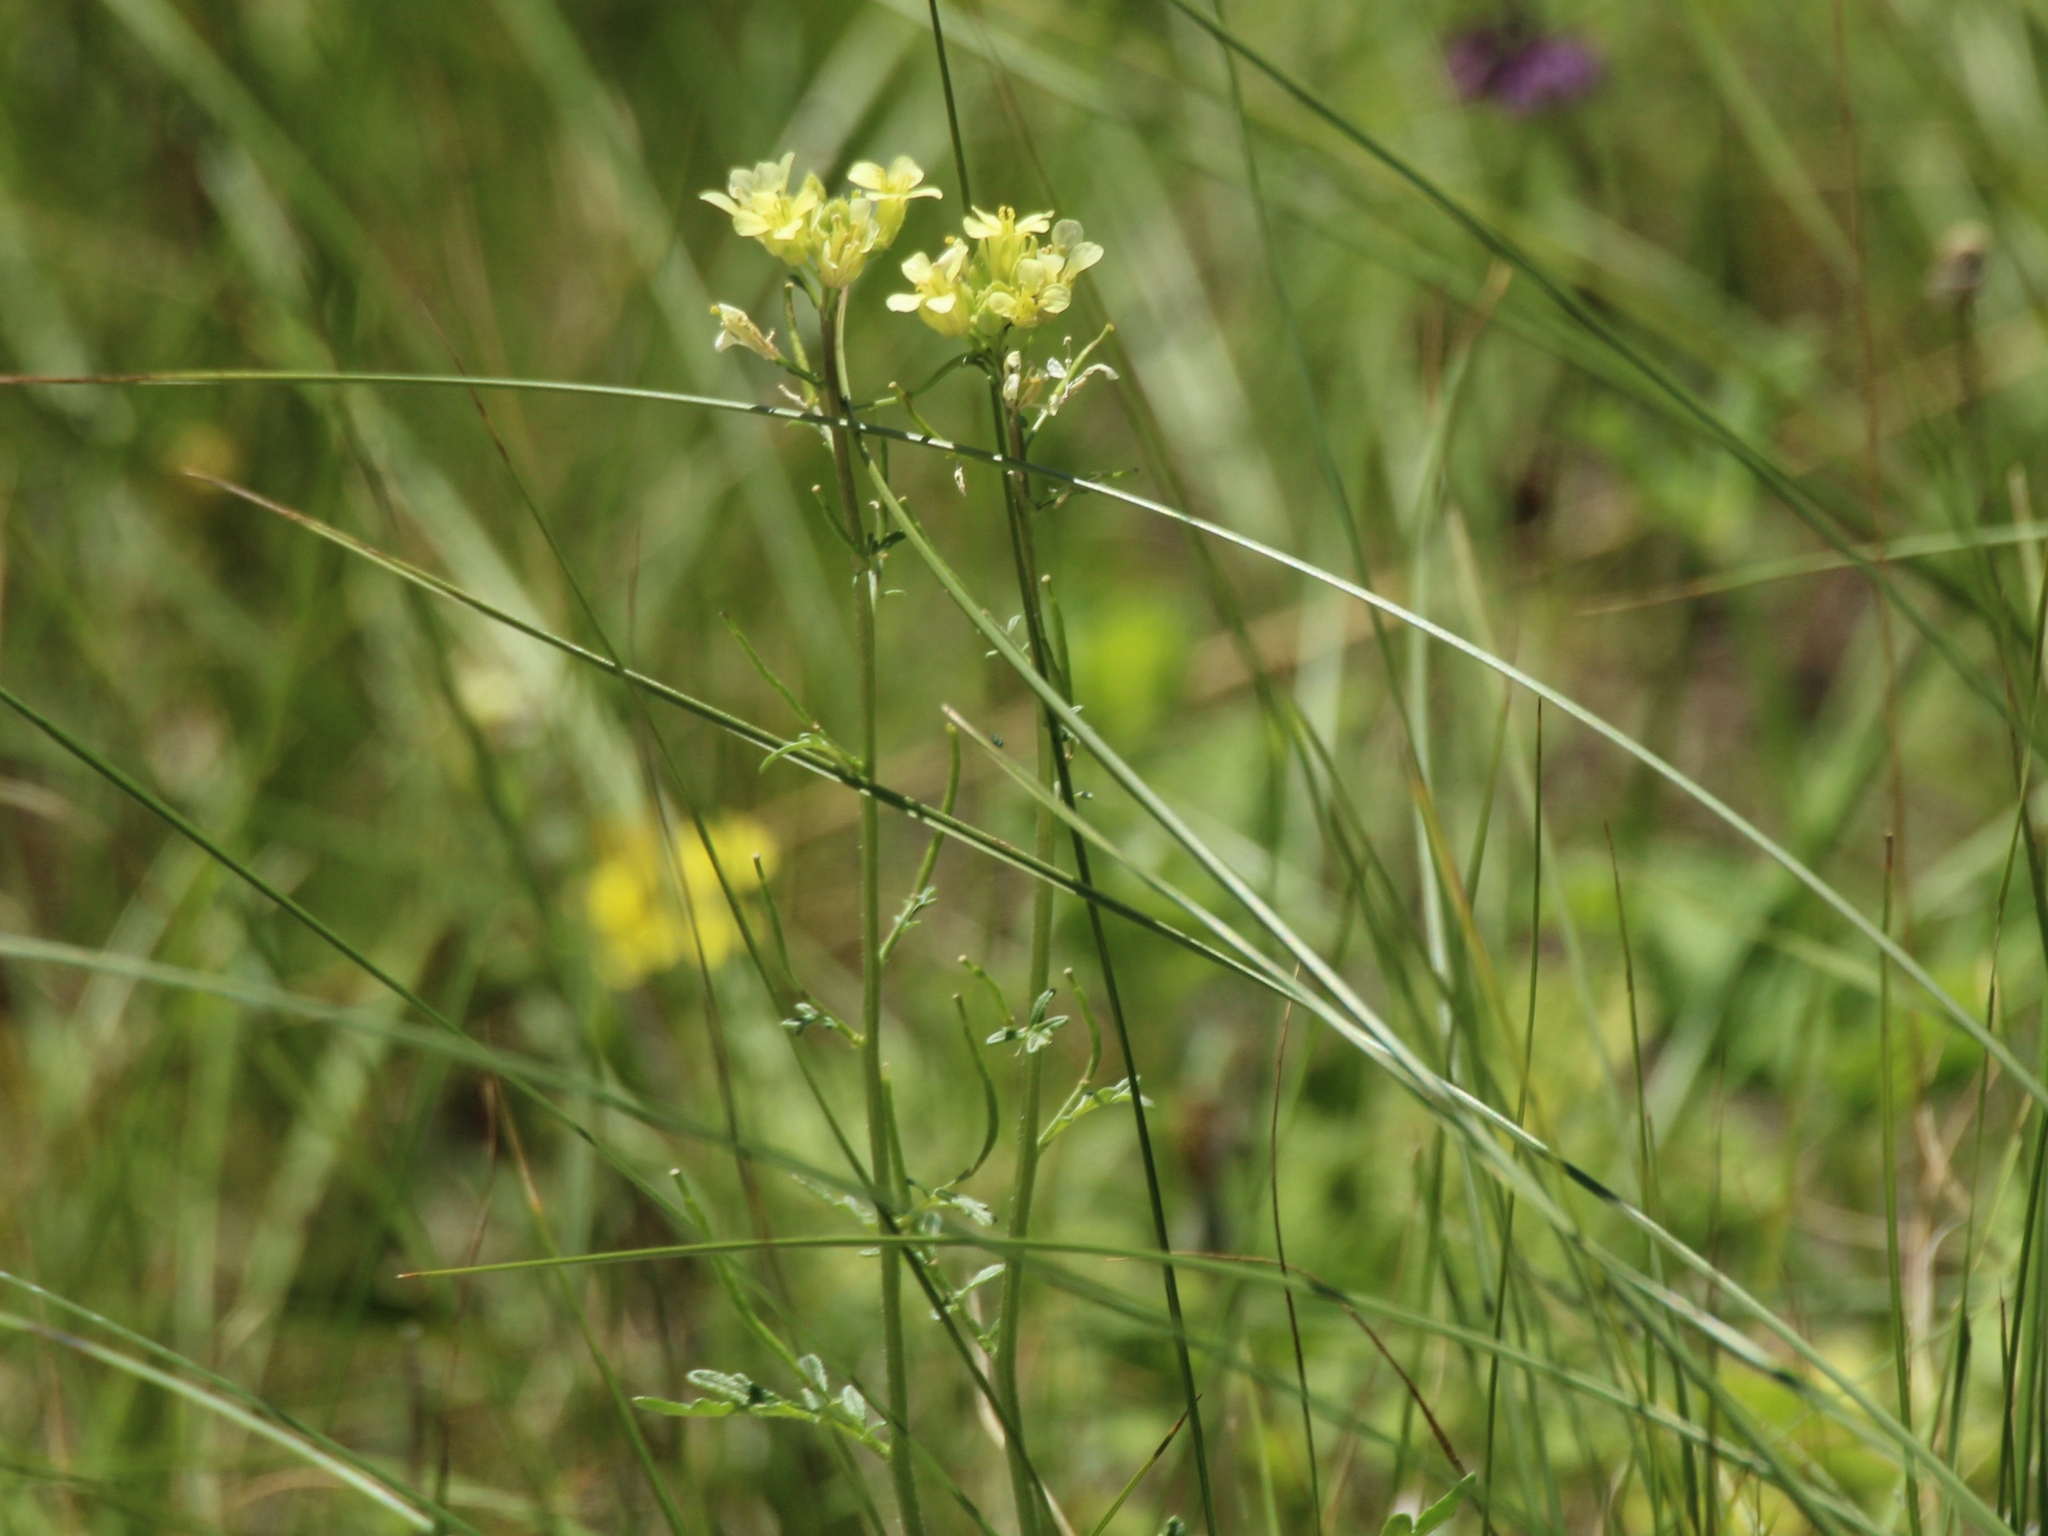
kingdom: Plantae
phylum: Tracheophyta
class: Magnoliopsida
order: Brassicales
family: Brassicaceae
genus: Erucastrum
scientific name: Erucastrum gallicum
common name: Hairy rocket
